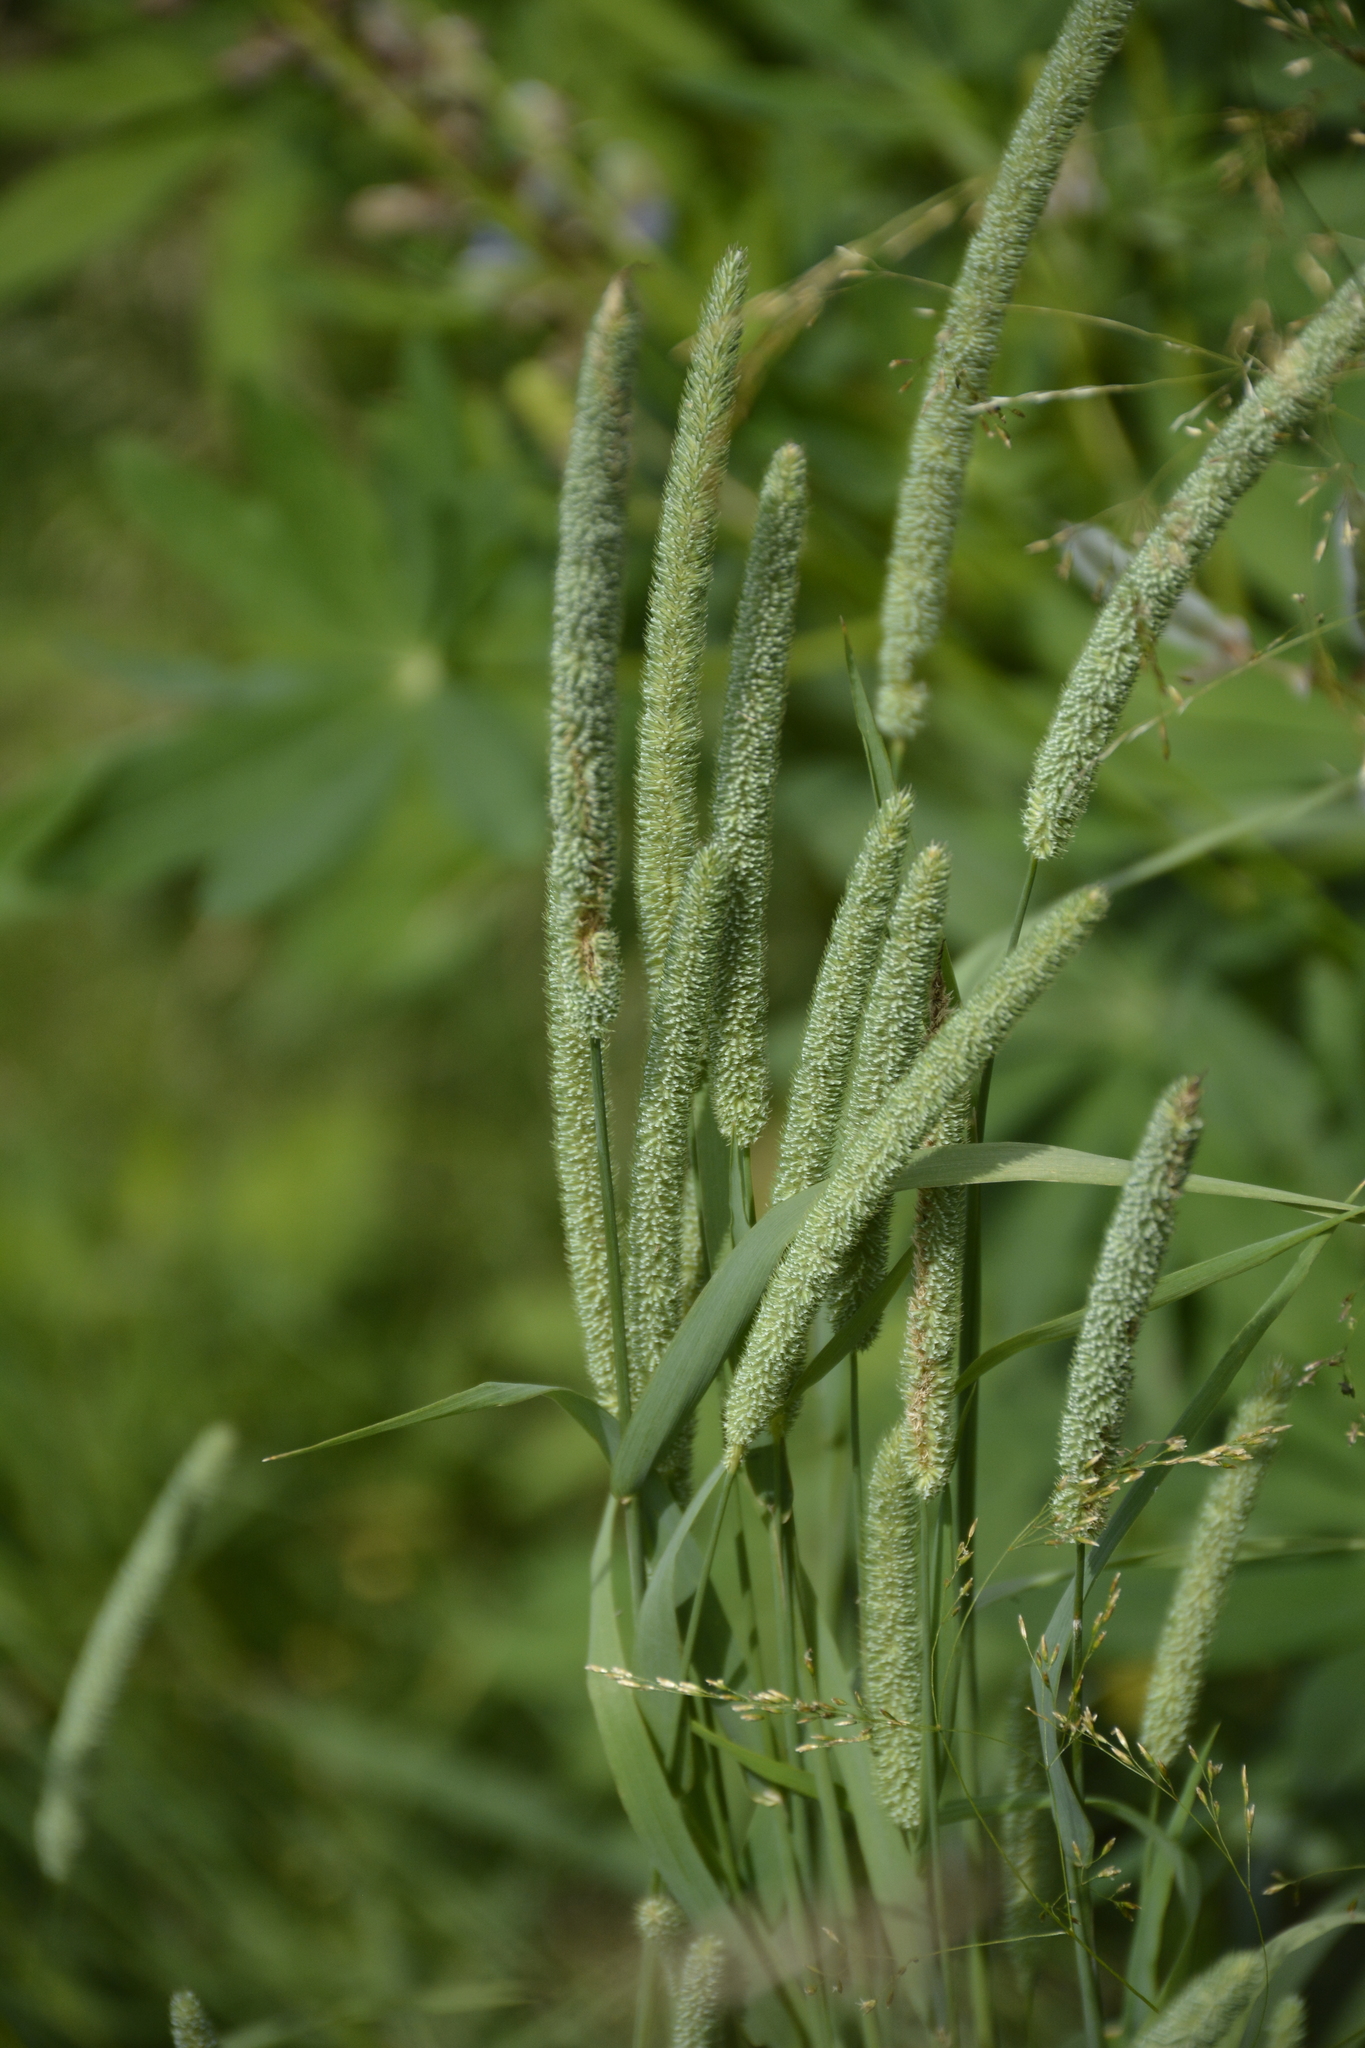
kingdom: Plantae
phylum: Tracheophyta
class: Liliopsida
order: Poales
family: Poaceae
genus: Phleum
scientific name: Phleum pratense
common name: Timothy grass
